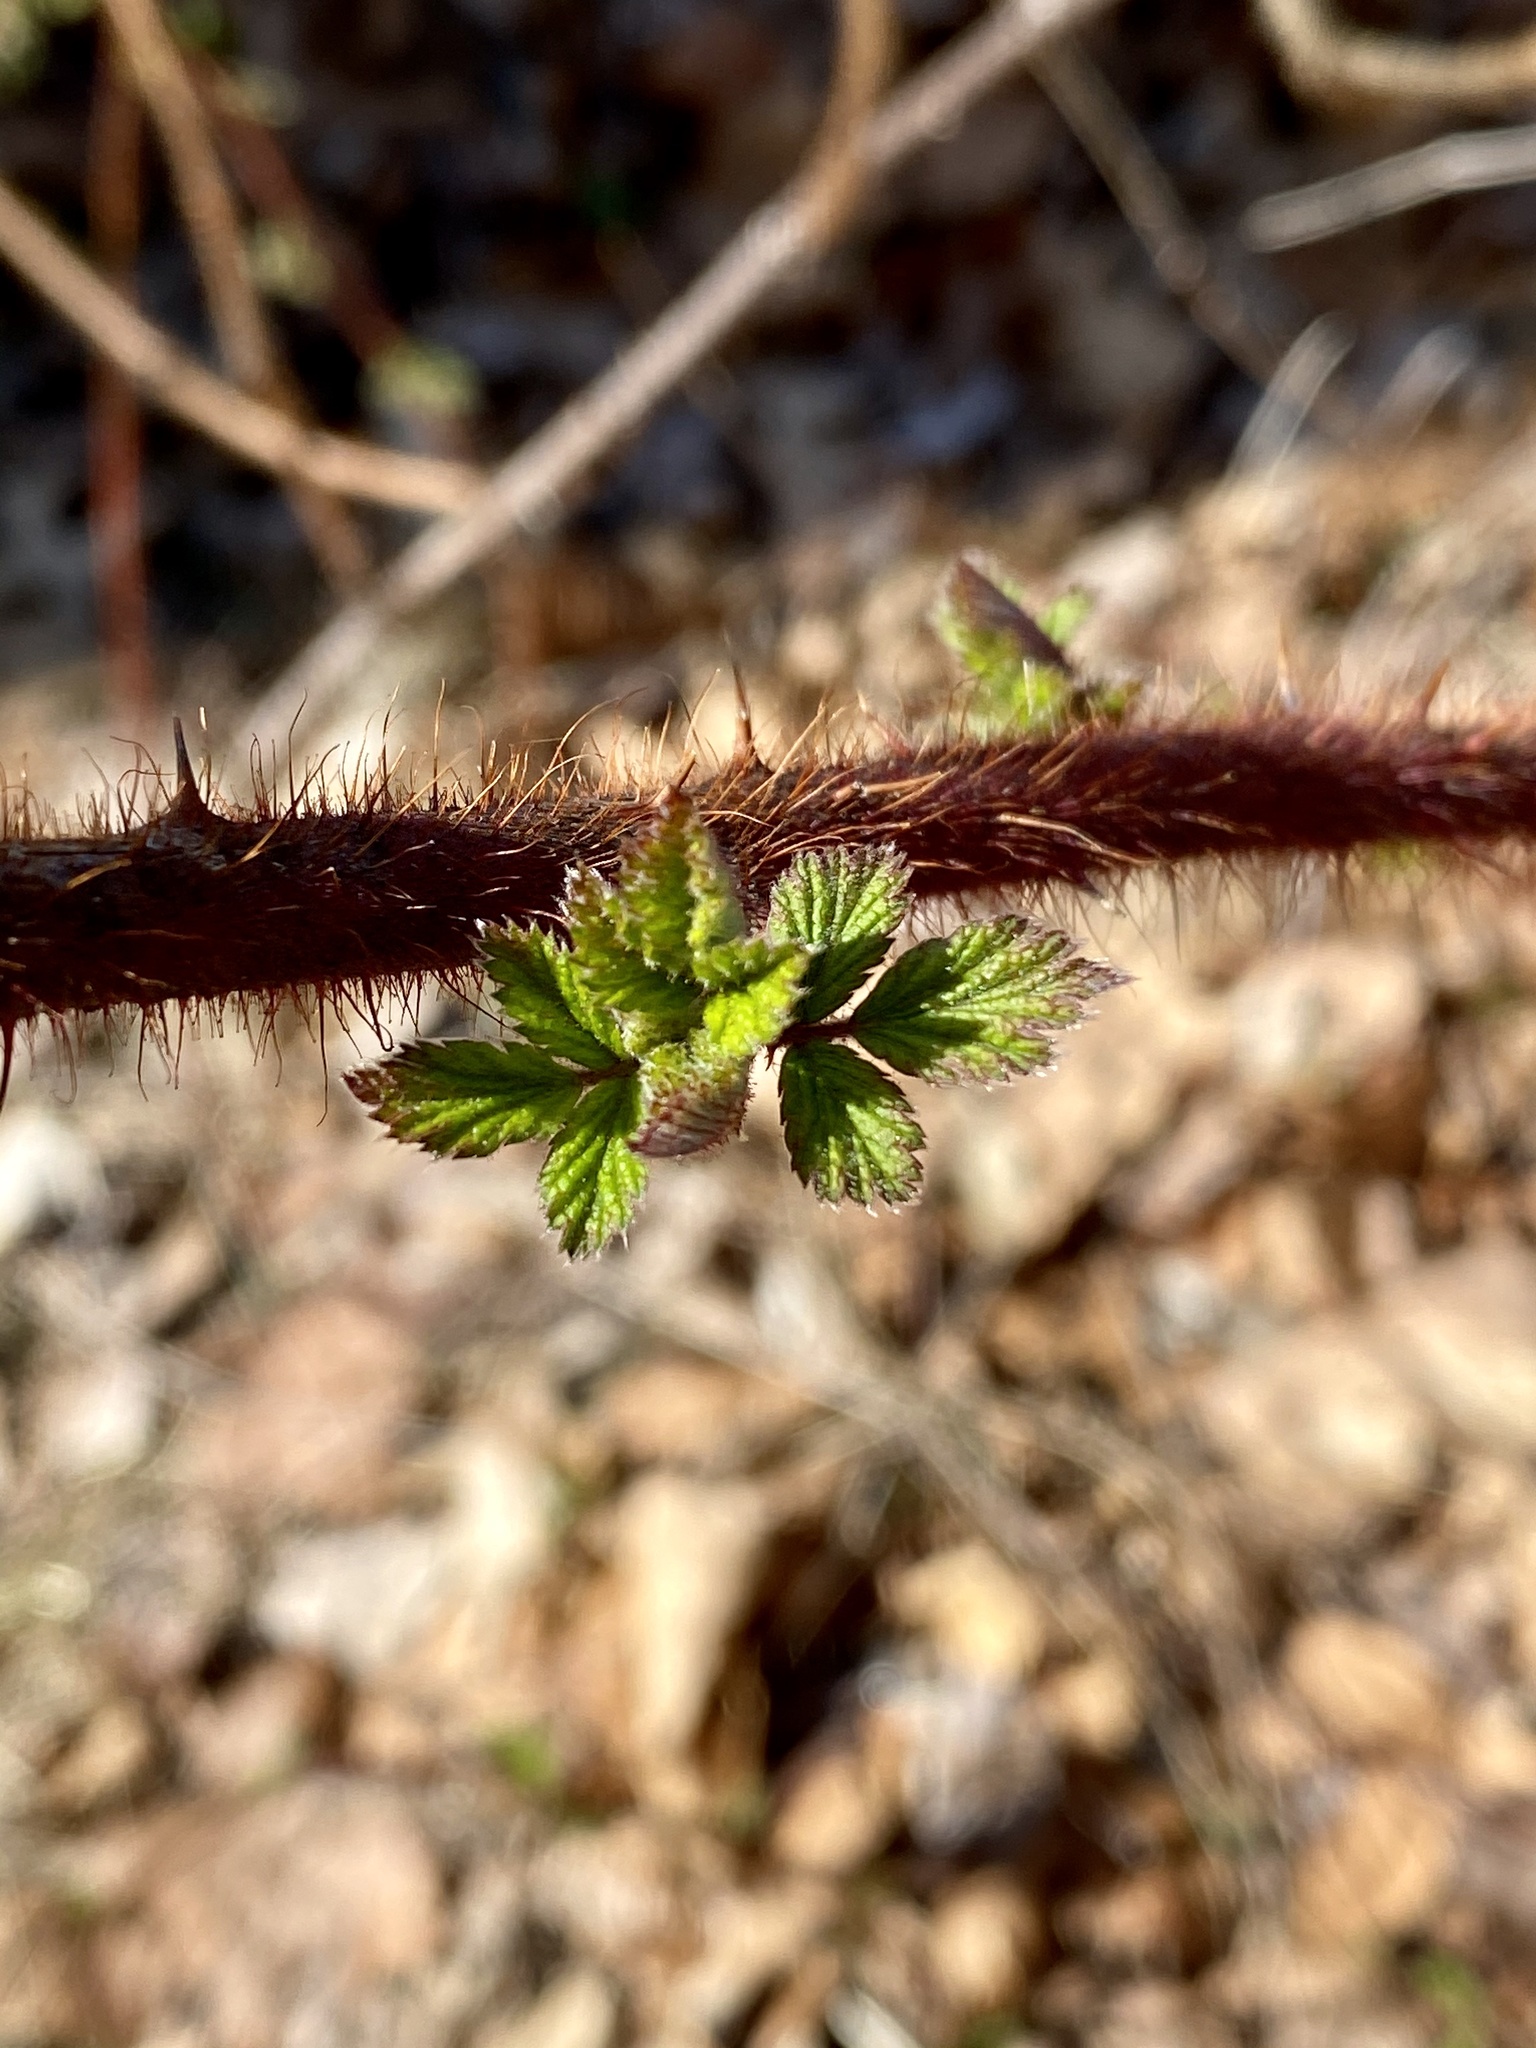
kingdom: Plantae
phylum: Tracheophyta
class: Magnoliopsida
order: Rosales
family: Rosaceae
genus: Rubus
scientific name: Rubus phoenicolasius
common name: Japanese wineberry
